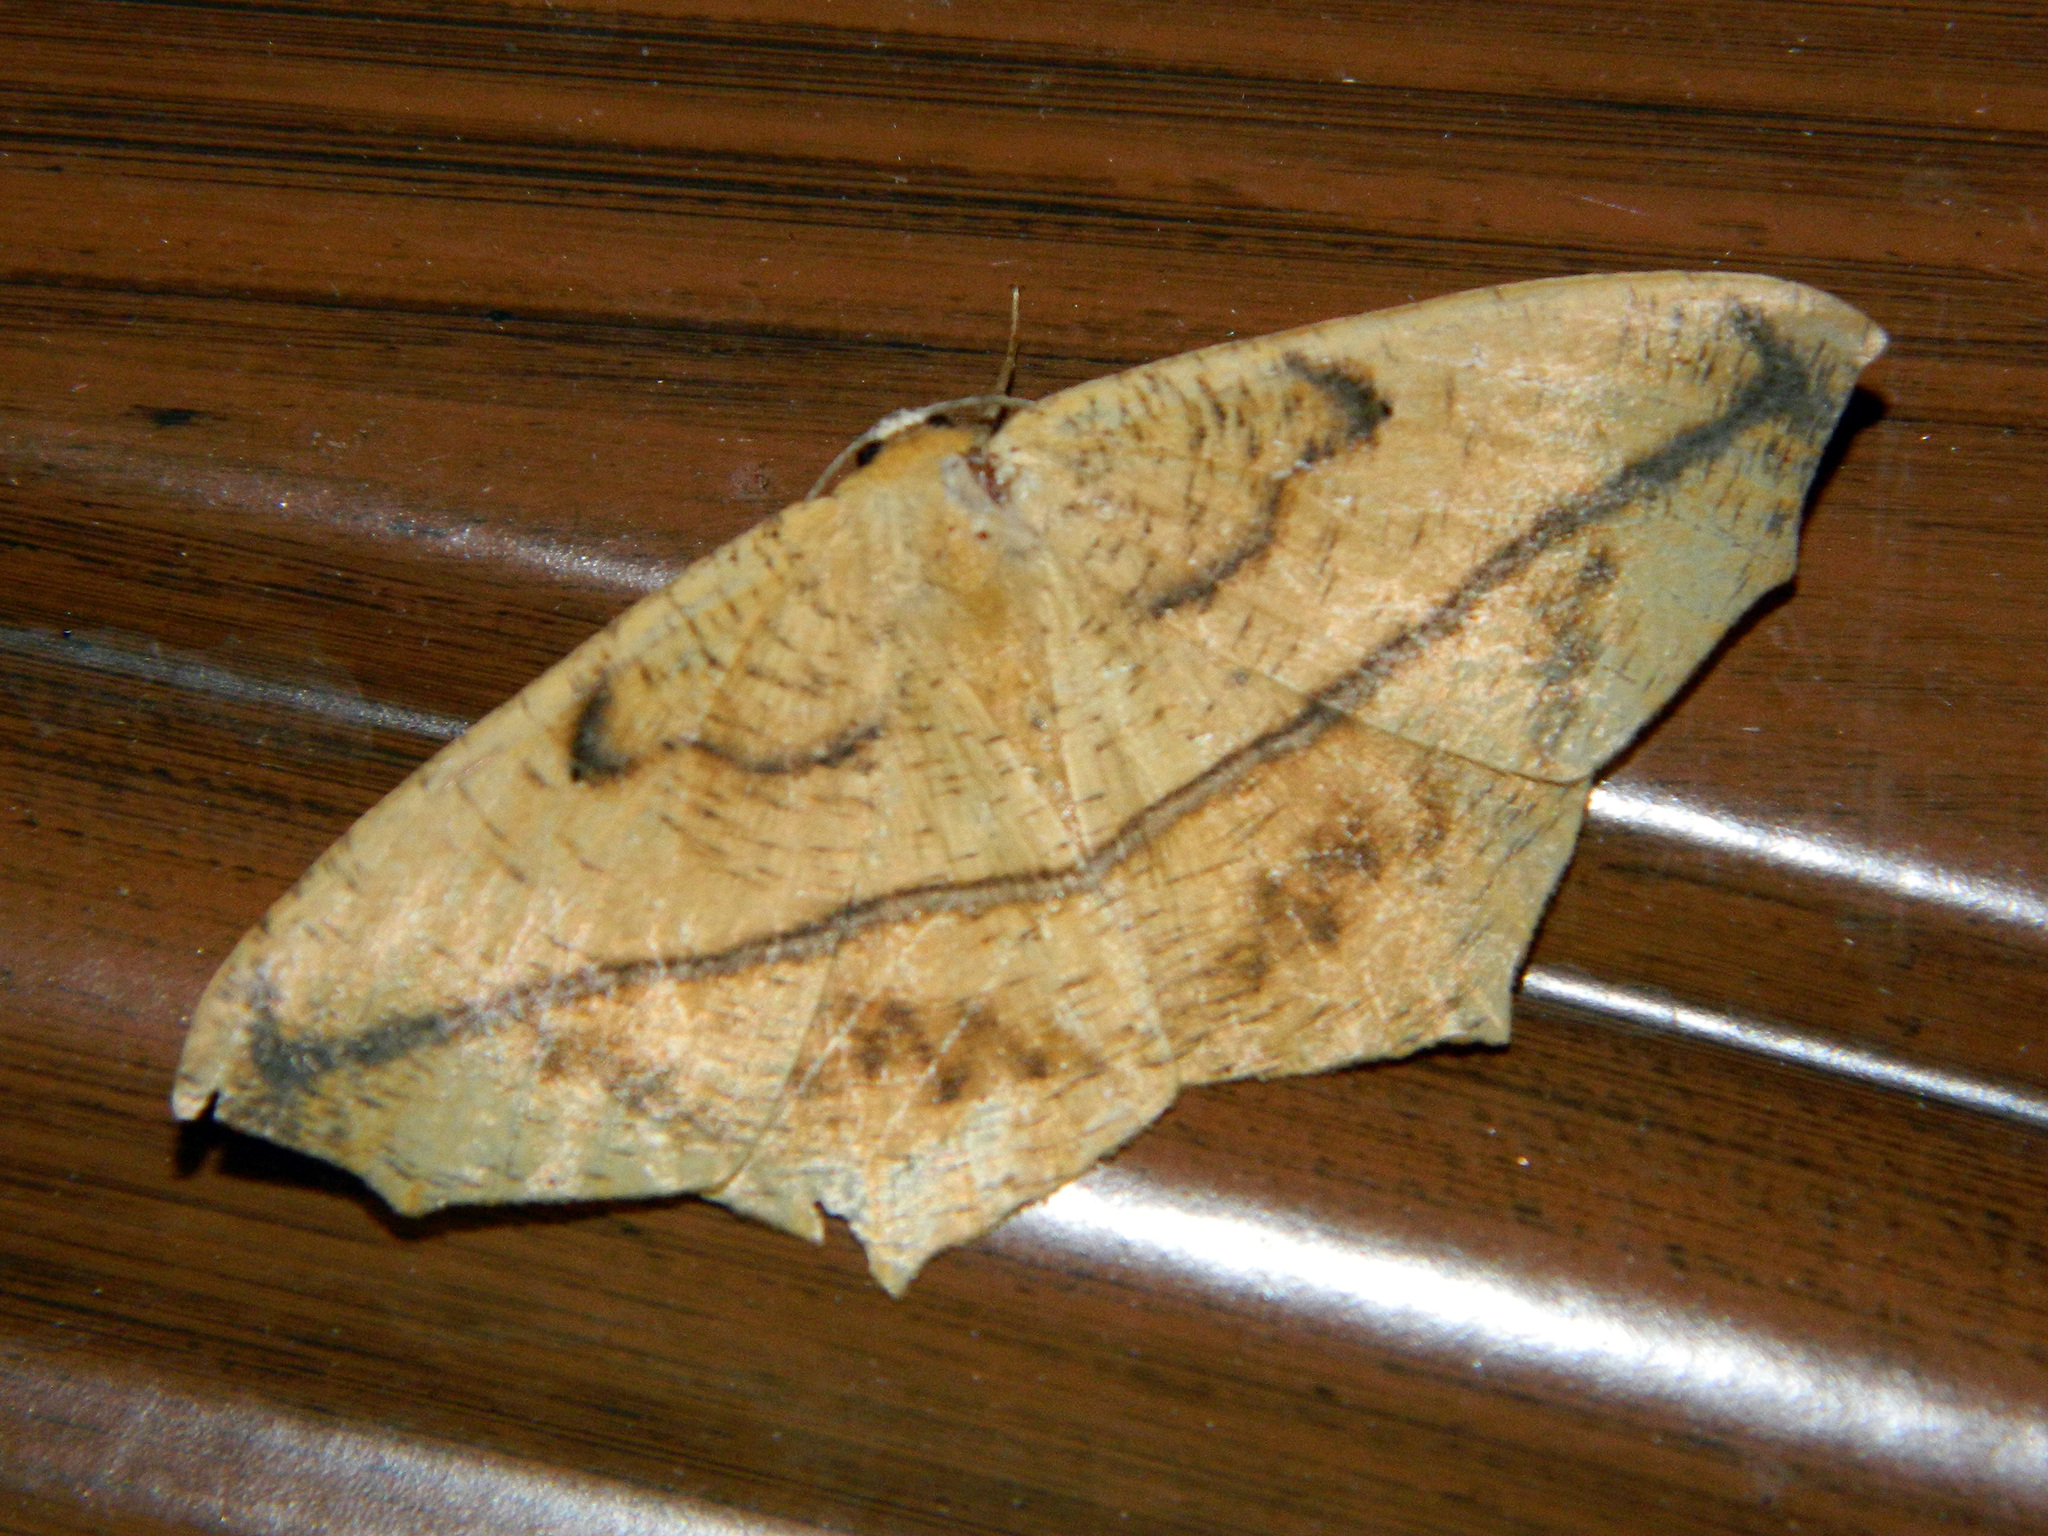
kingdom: Animalia
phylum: Arthropoda
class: Insecta
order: Lepidoptera
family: Geometridae
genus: Prochoerodes
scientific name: Prochoerodes lineola
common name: Large maple spanworm
